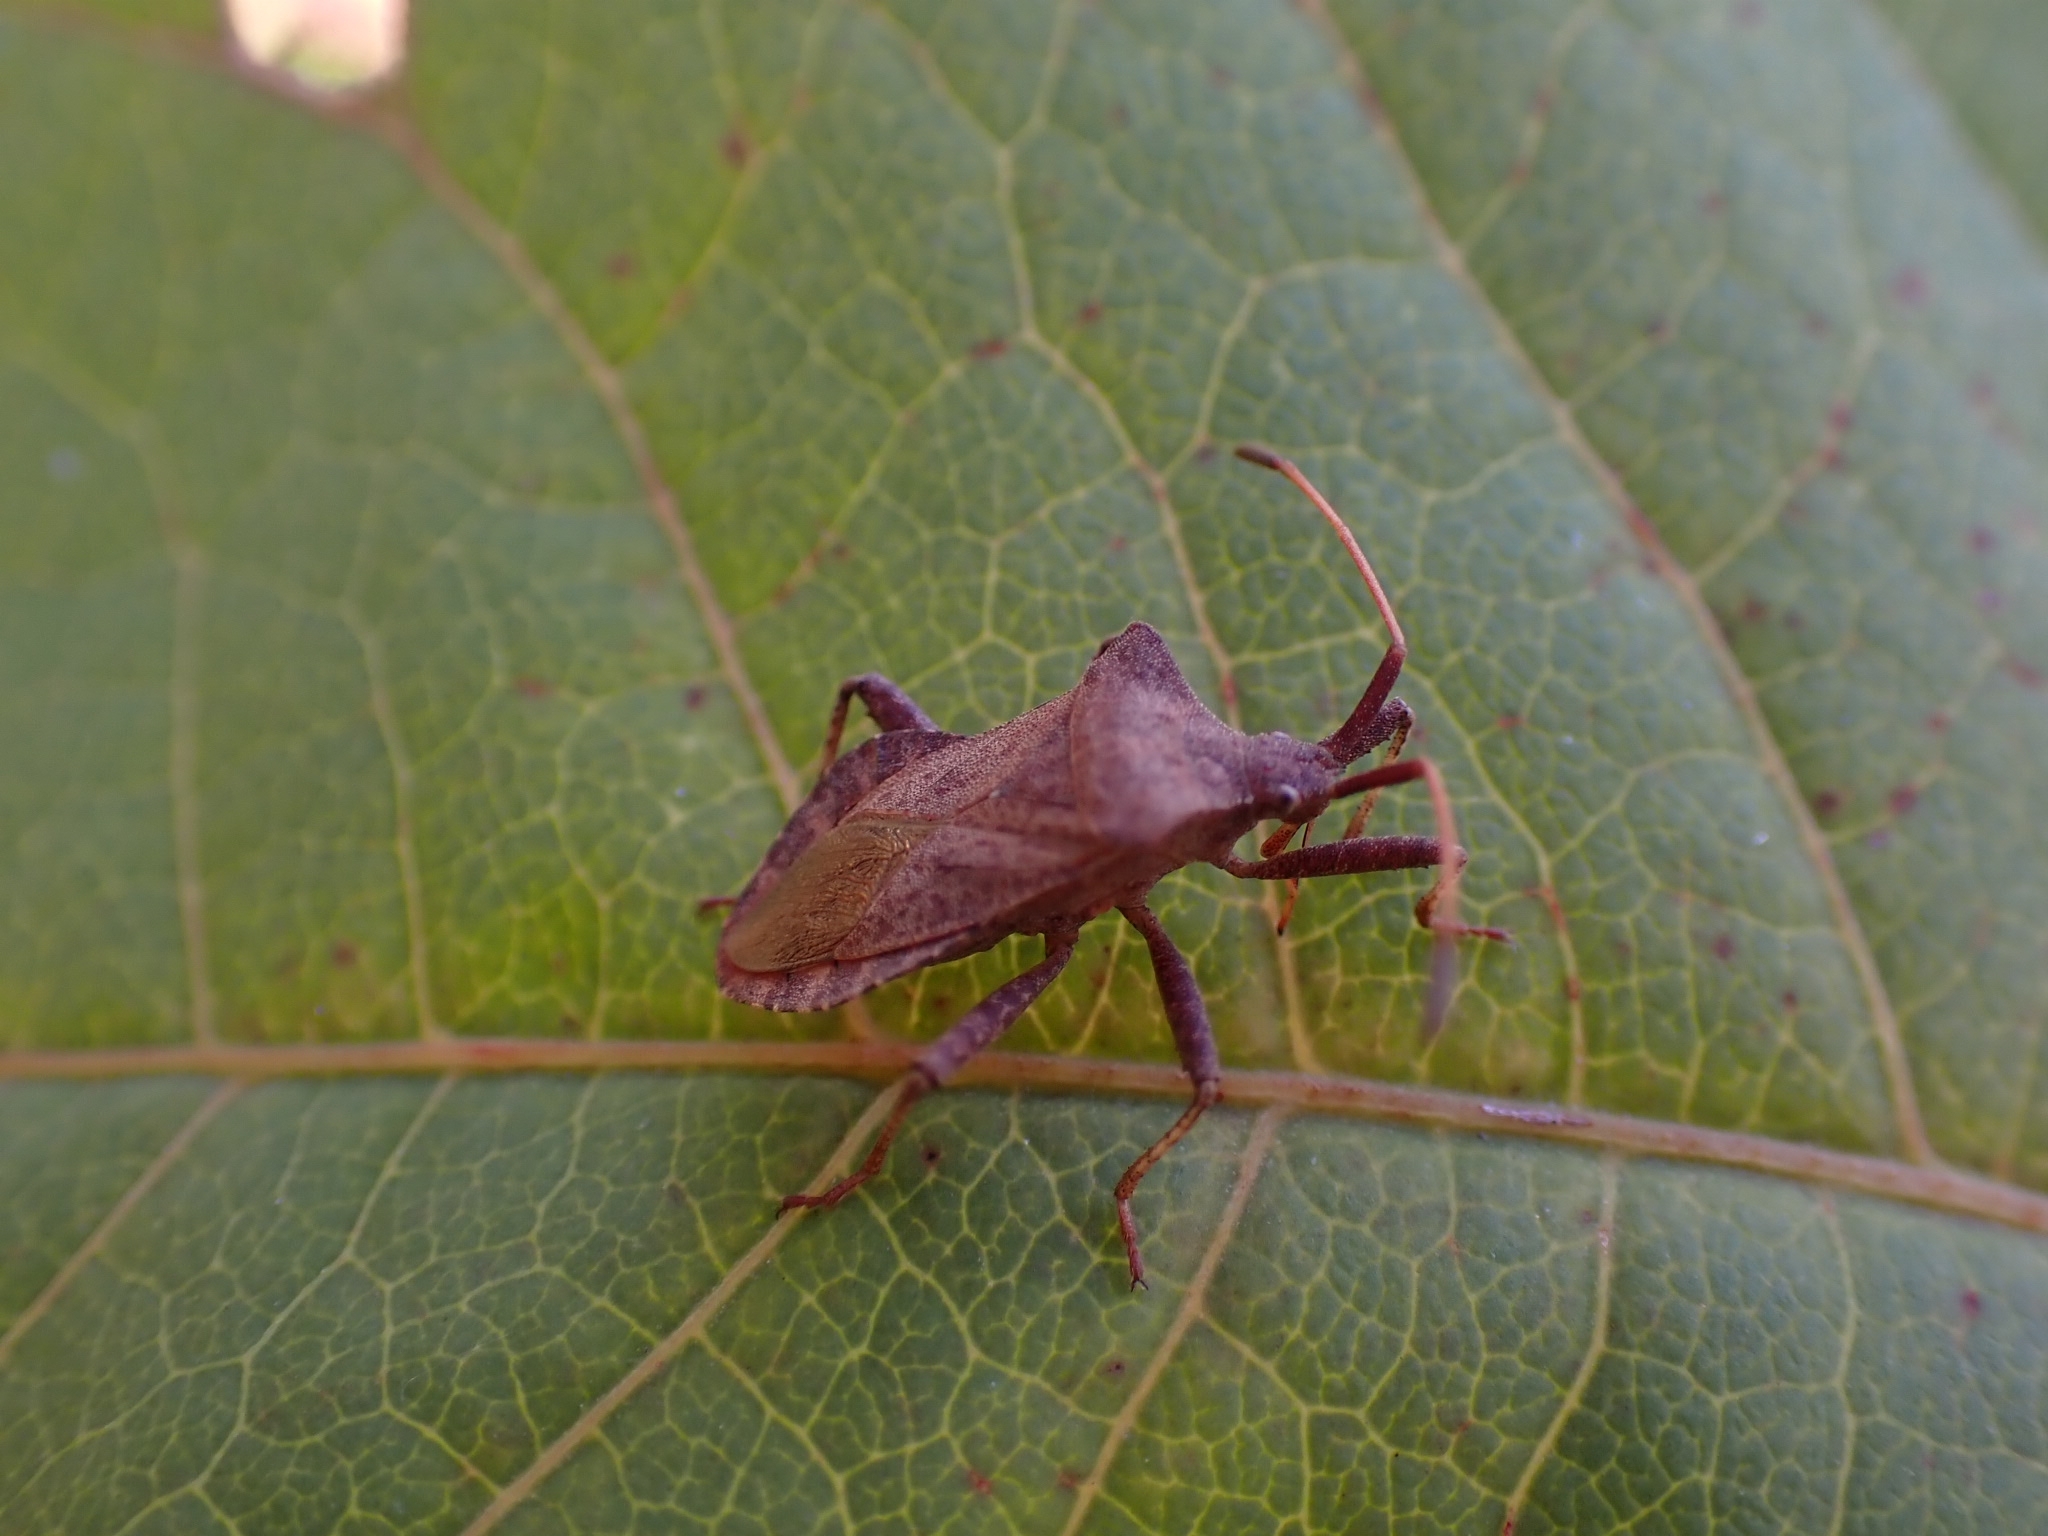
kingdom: Animalia
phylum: Arthropoda
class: Insecta
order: Hemiptera
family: Coreidae
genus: Coreus
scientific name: Coreus marginatus
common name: Dock bug
